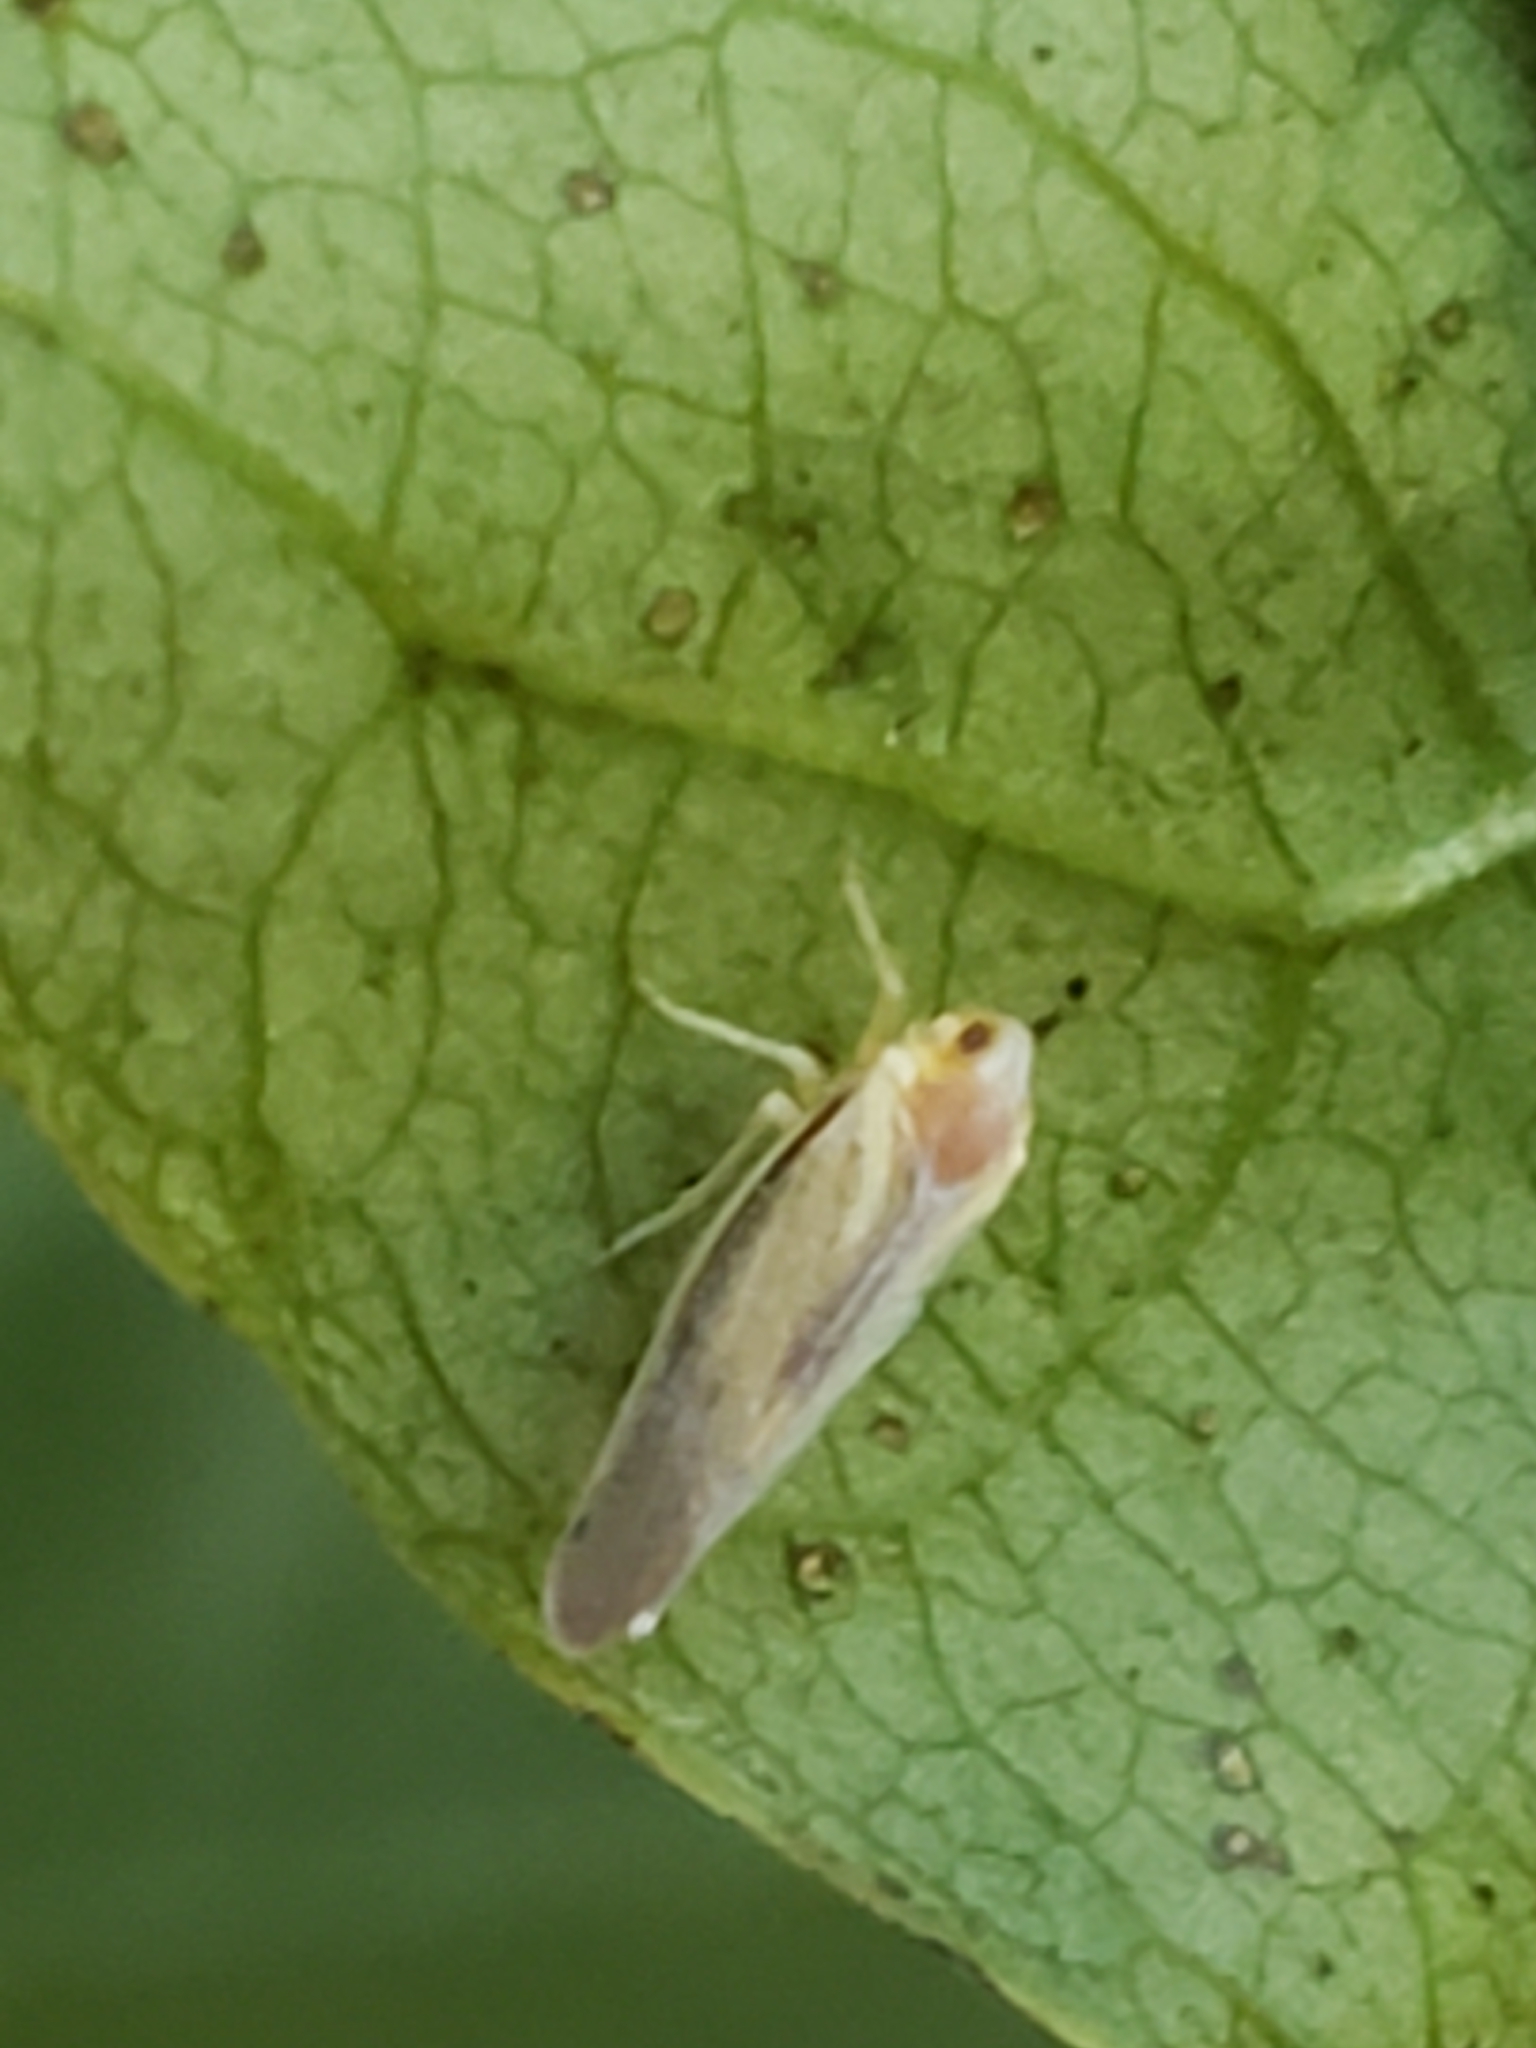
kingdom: Animalia
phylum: Arthropoda
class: Insecta
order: Hemiptera
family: Derbidae
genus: Omolicna
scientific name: Omolicna uhleri
